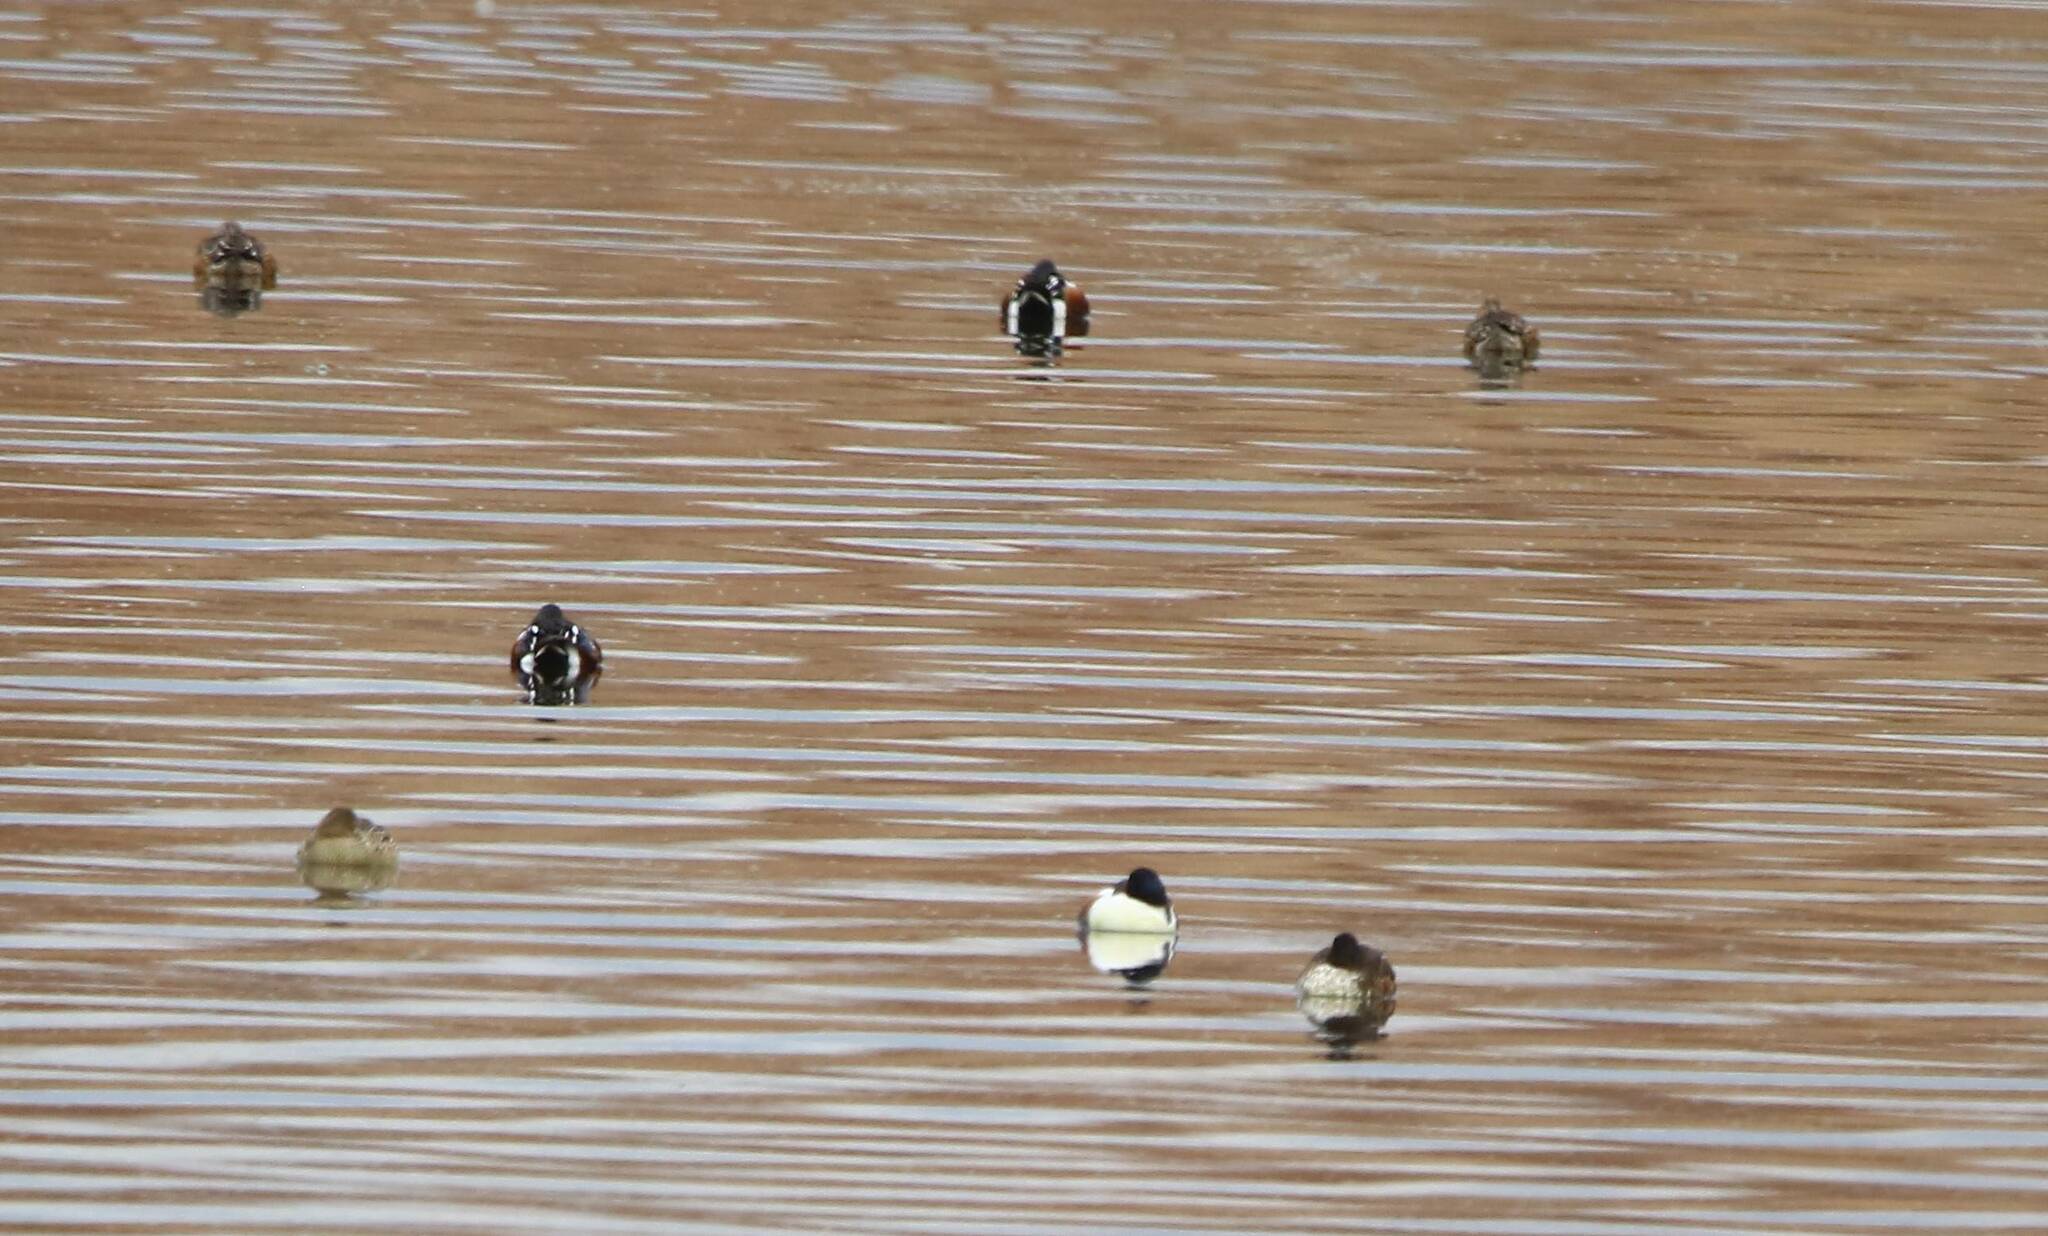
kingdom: Animalia
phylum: Chordata
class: Aves
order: Anseriformes
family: Anatidae
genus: Spatula
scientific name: Spatula clypeata
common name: Northern shoveler
